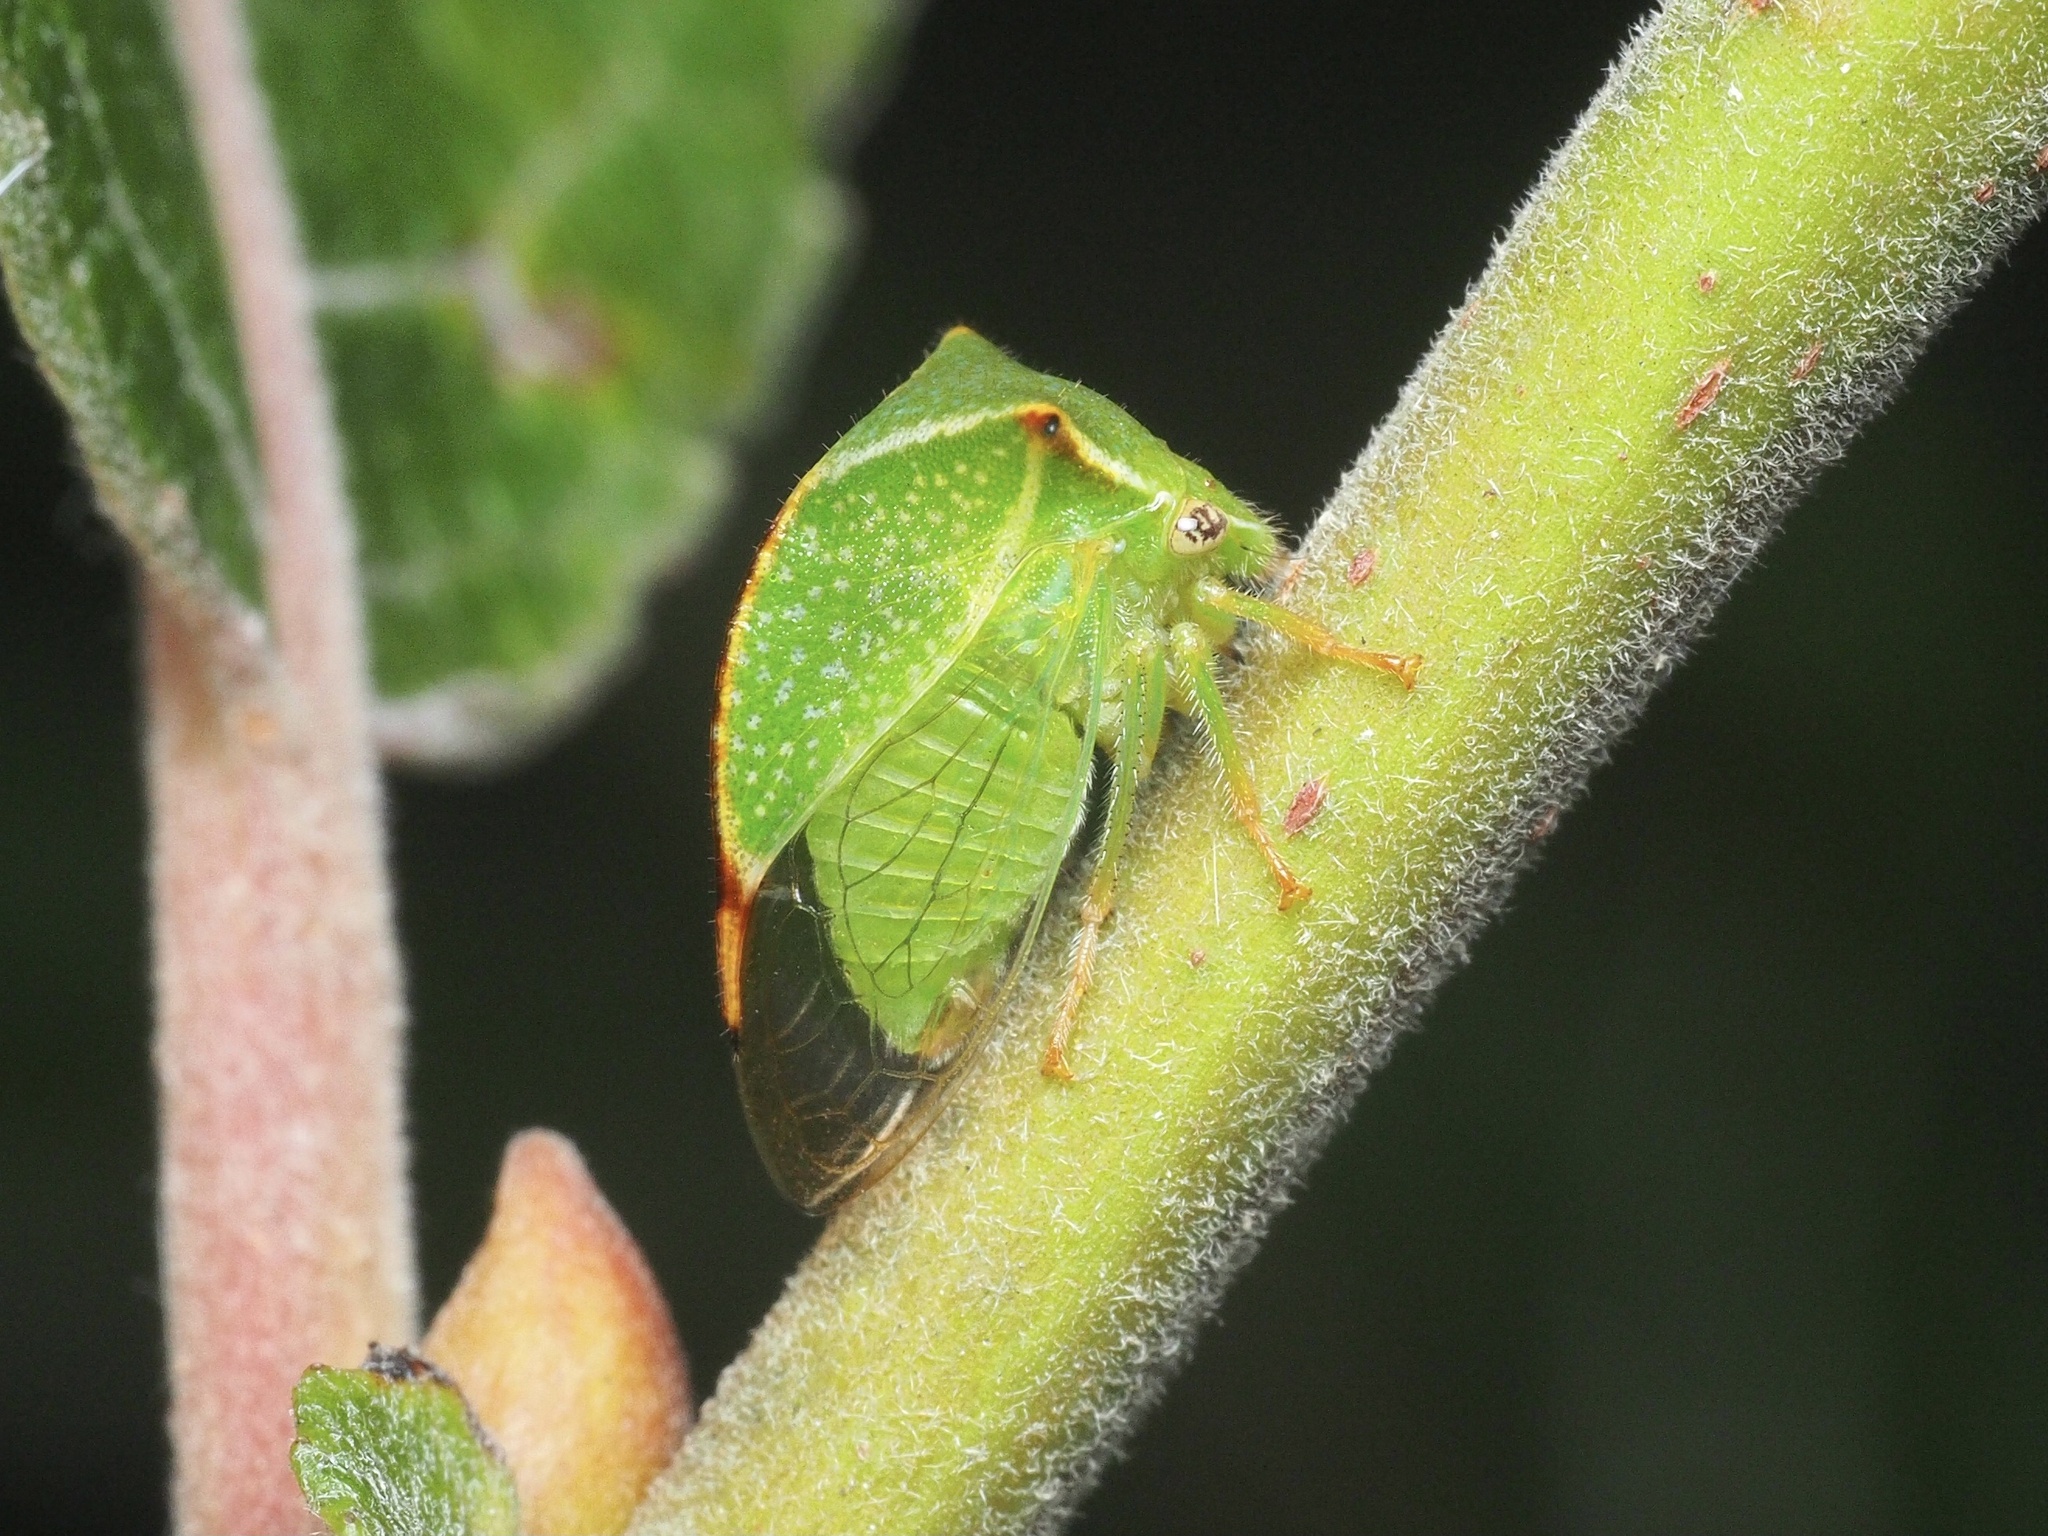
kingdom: Animalia
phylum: Arthropoda
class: Insecta
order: Hemiptera
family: Membracidae
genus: Stictocephala
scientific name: Stictocephala bisonia
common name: American buffalo treehopper
